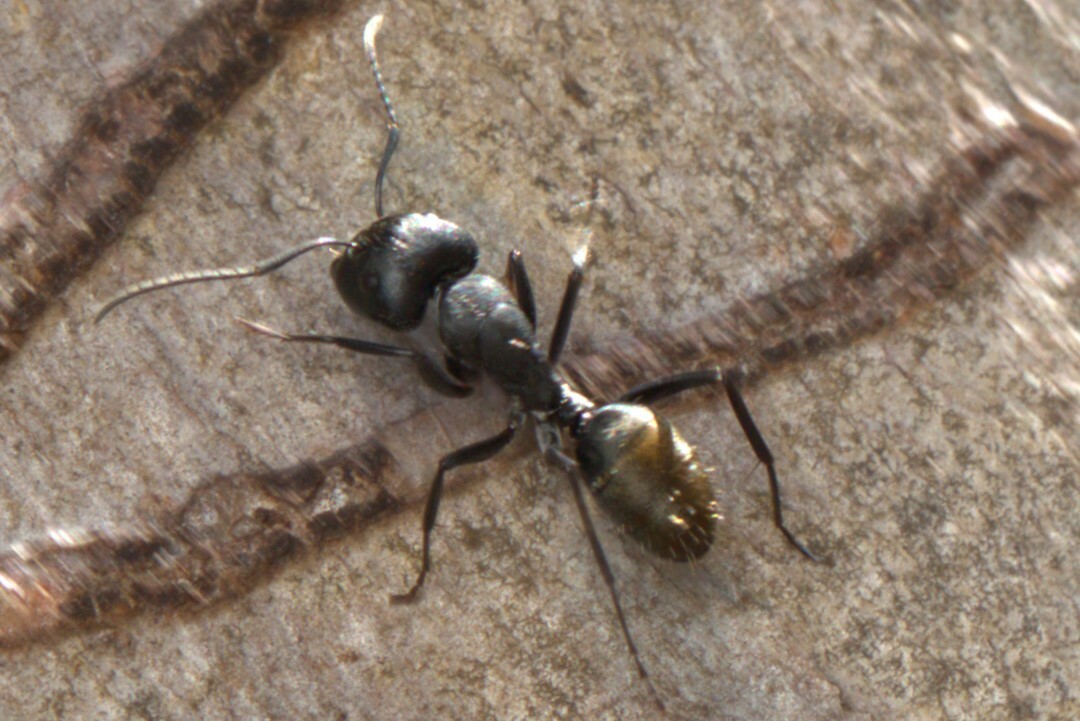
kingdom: Animalia
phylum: Arthropoda
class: Insecta
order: Hymenoptera
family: Formicidae
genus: Camponotus
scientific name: Camponotus aeneopilosus
